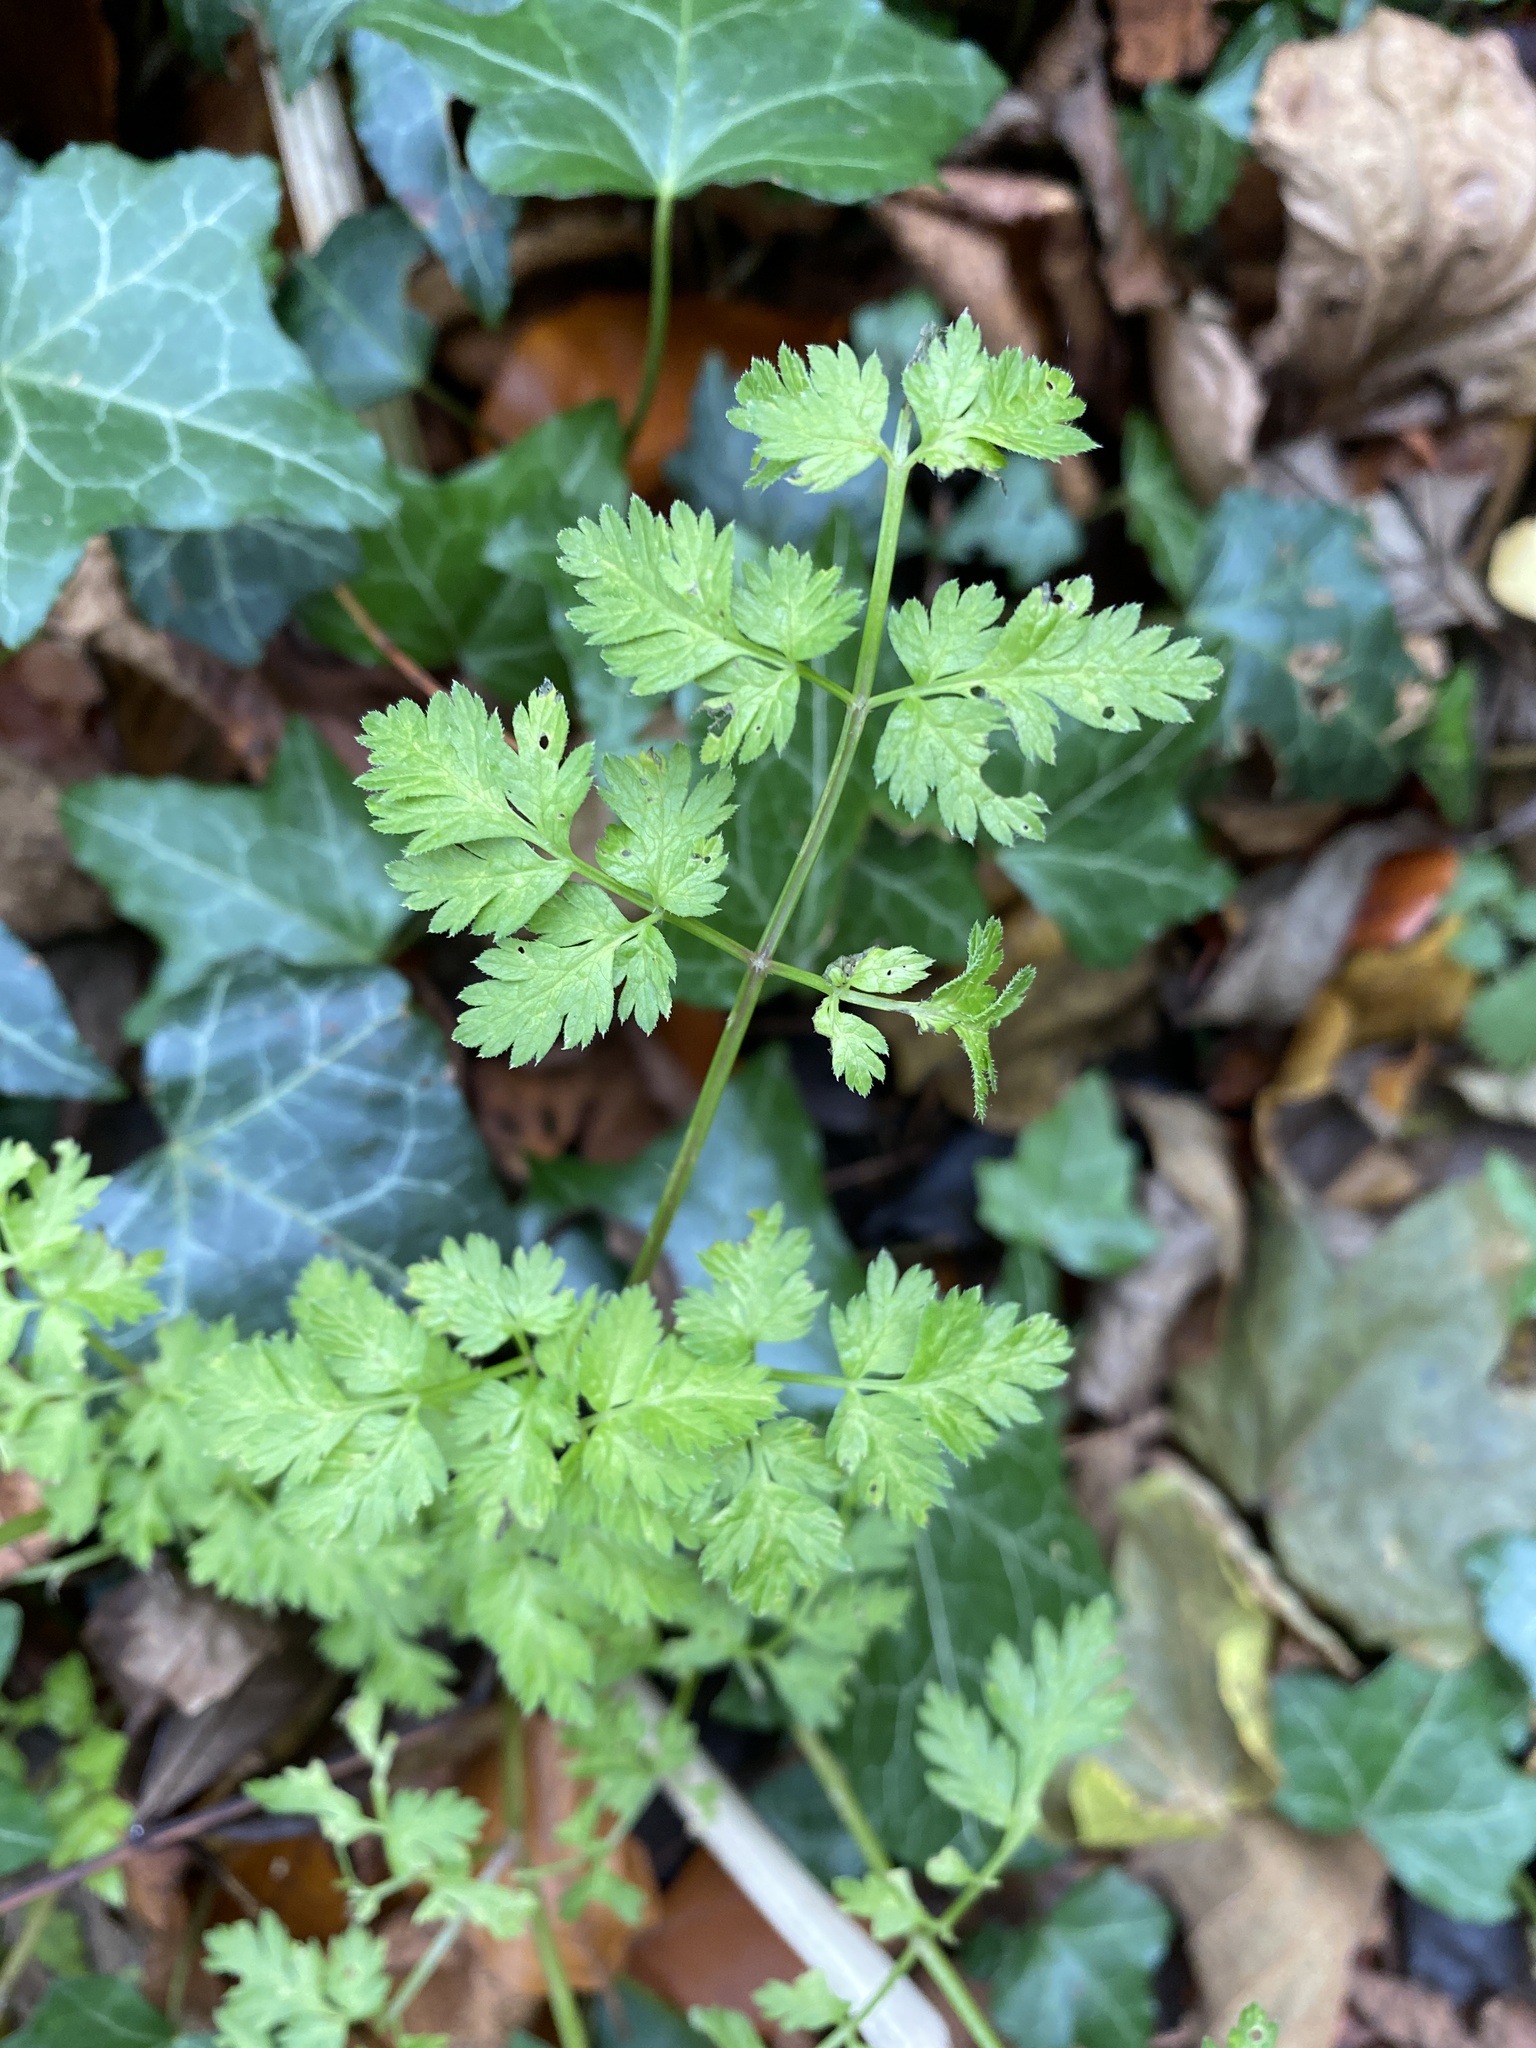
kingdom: Plantae
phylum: Tracheophyta
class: Magnoliopsida
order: Apiales
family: Apiaceae
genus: Anthriscus
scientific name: Anthriscus sylvestris
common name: Cow parsley
